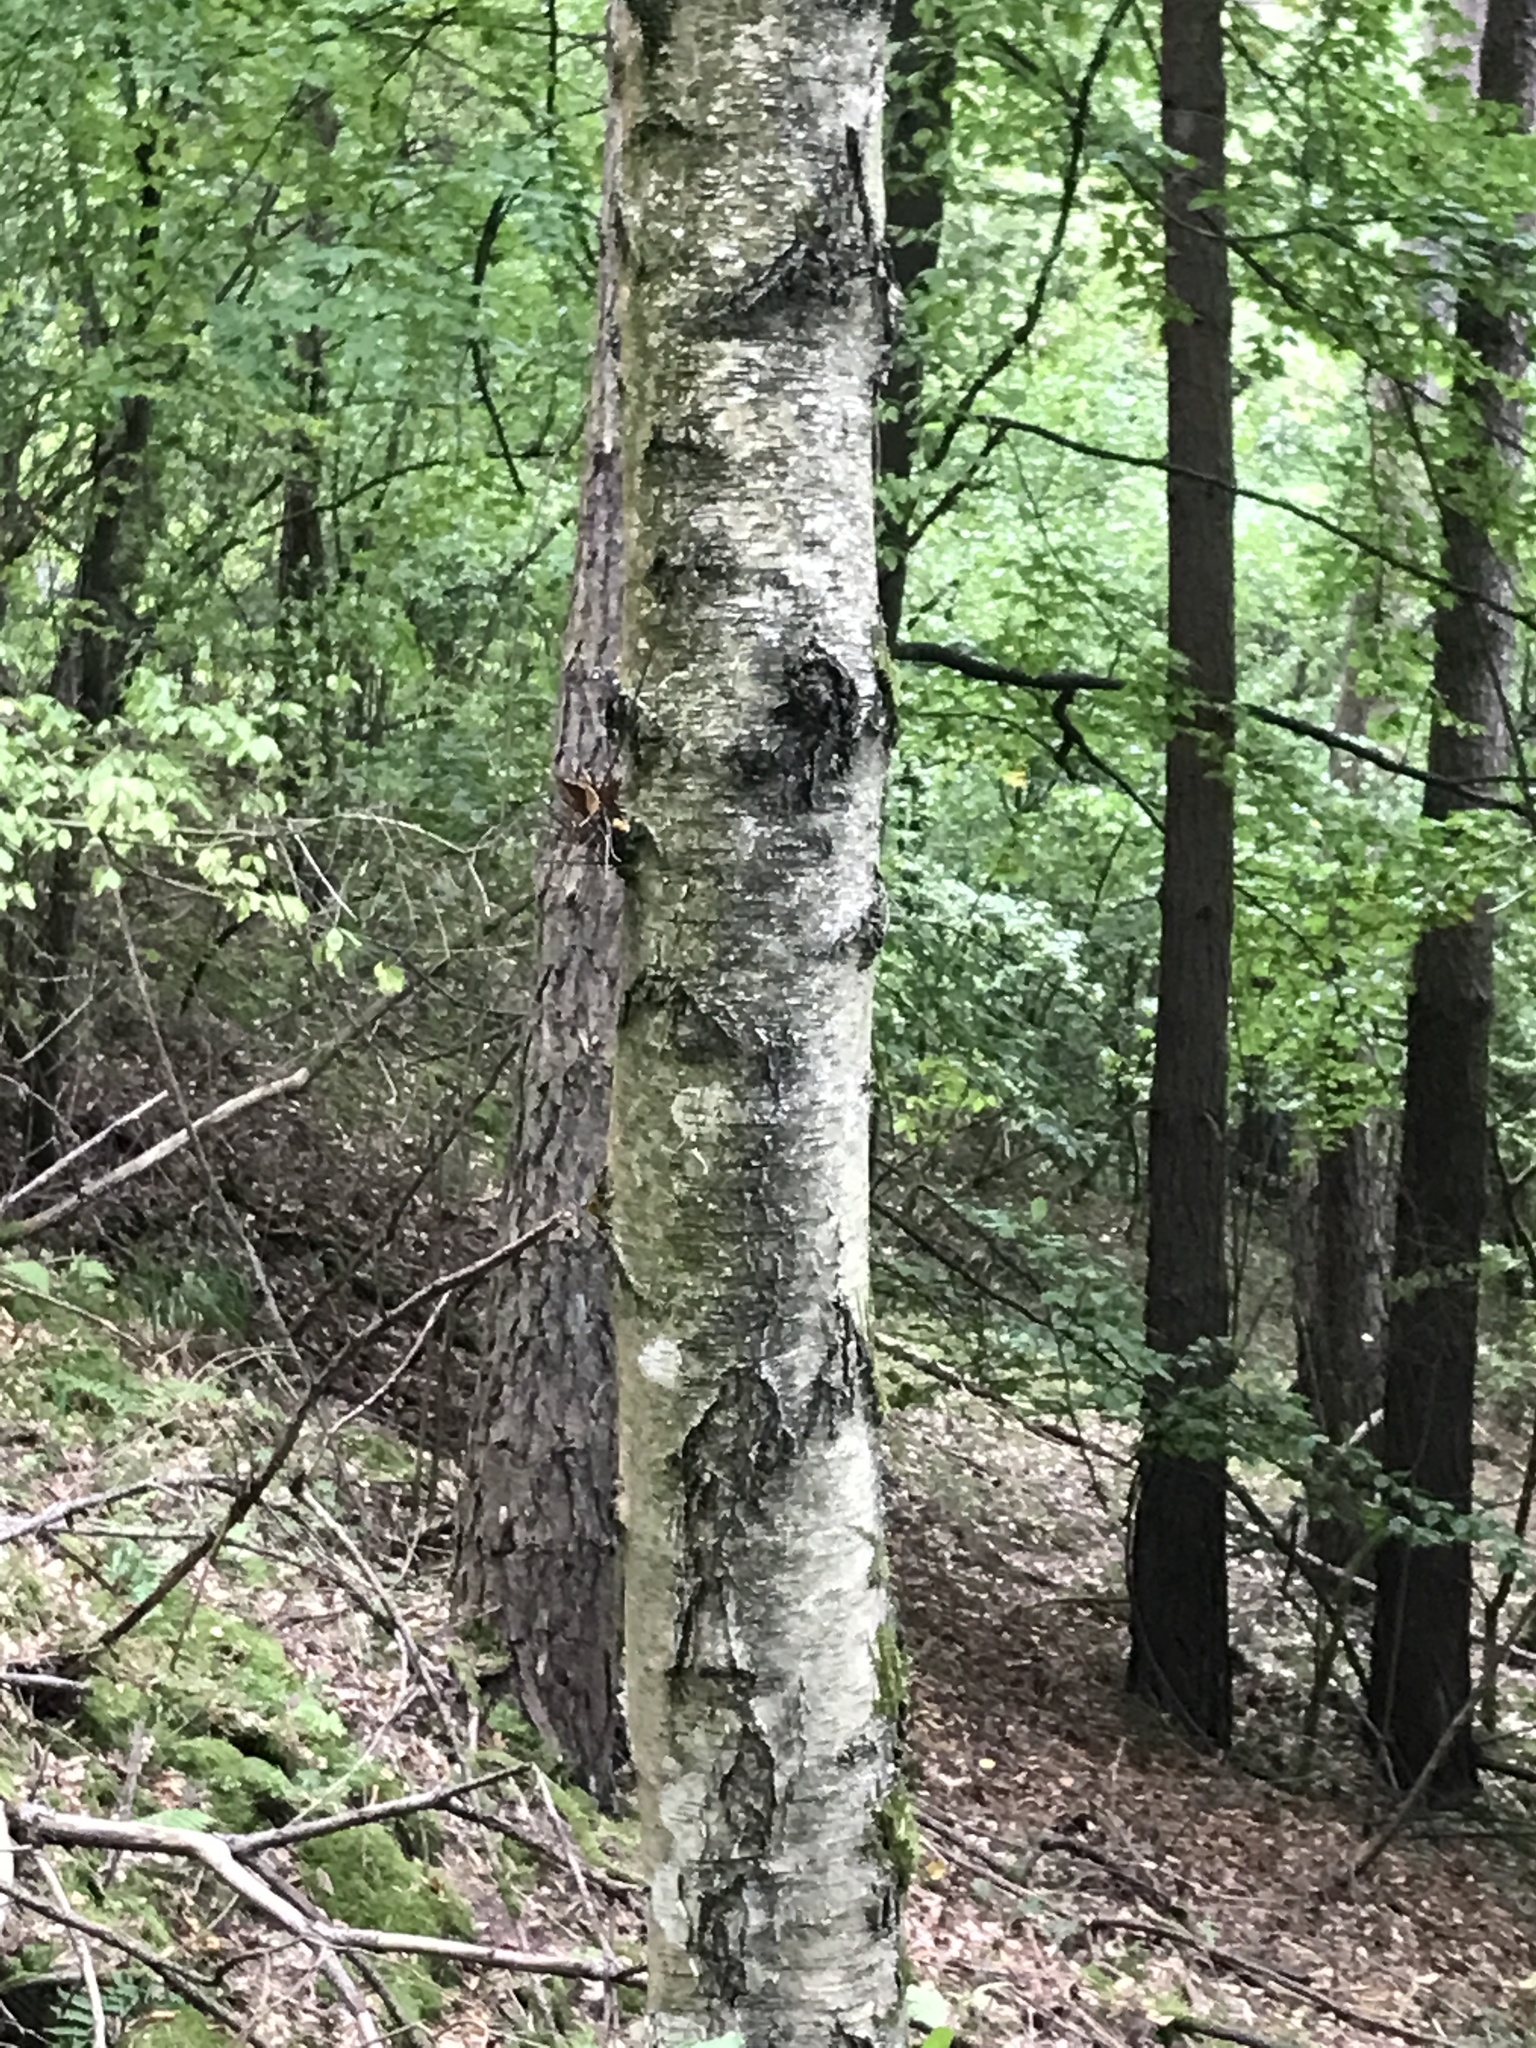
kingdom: Plantae
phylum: Tracheophyta
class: Magnoliopsida
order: Fagales
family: Betulaceae
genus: Betula
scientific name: Betula pendula
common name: Silver birch
